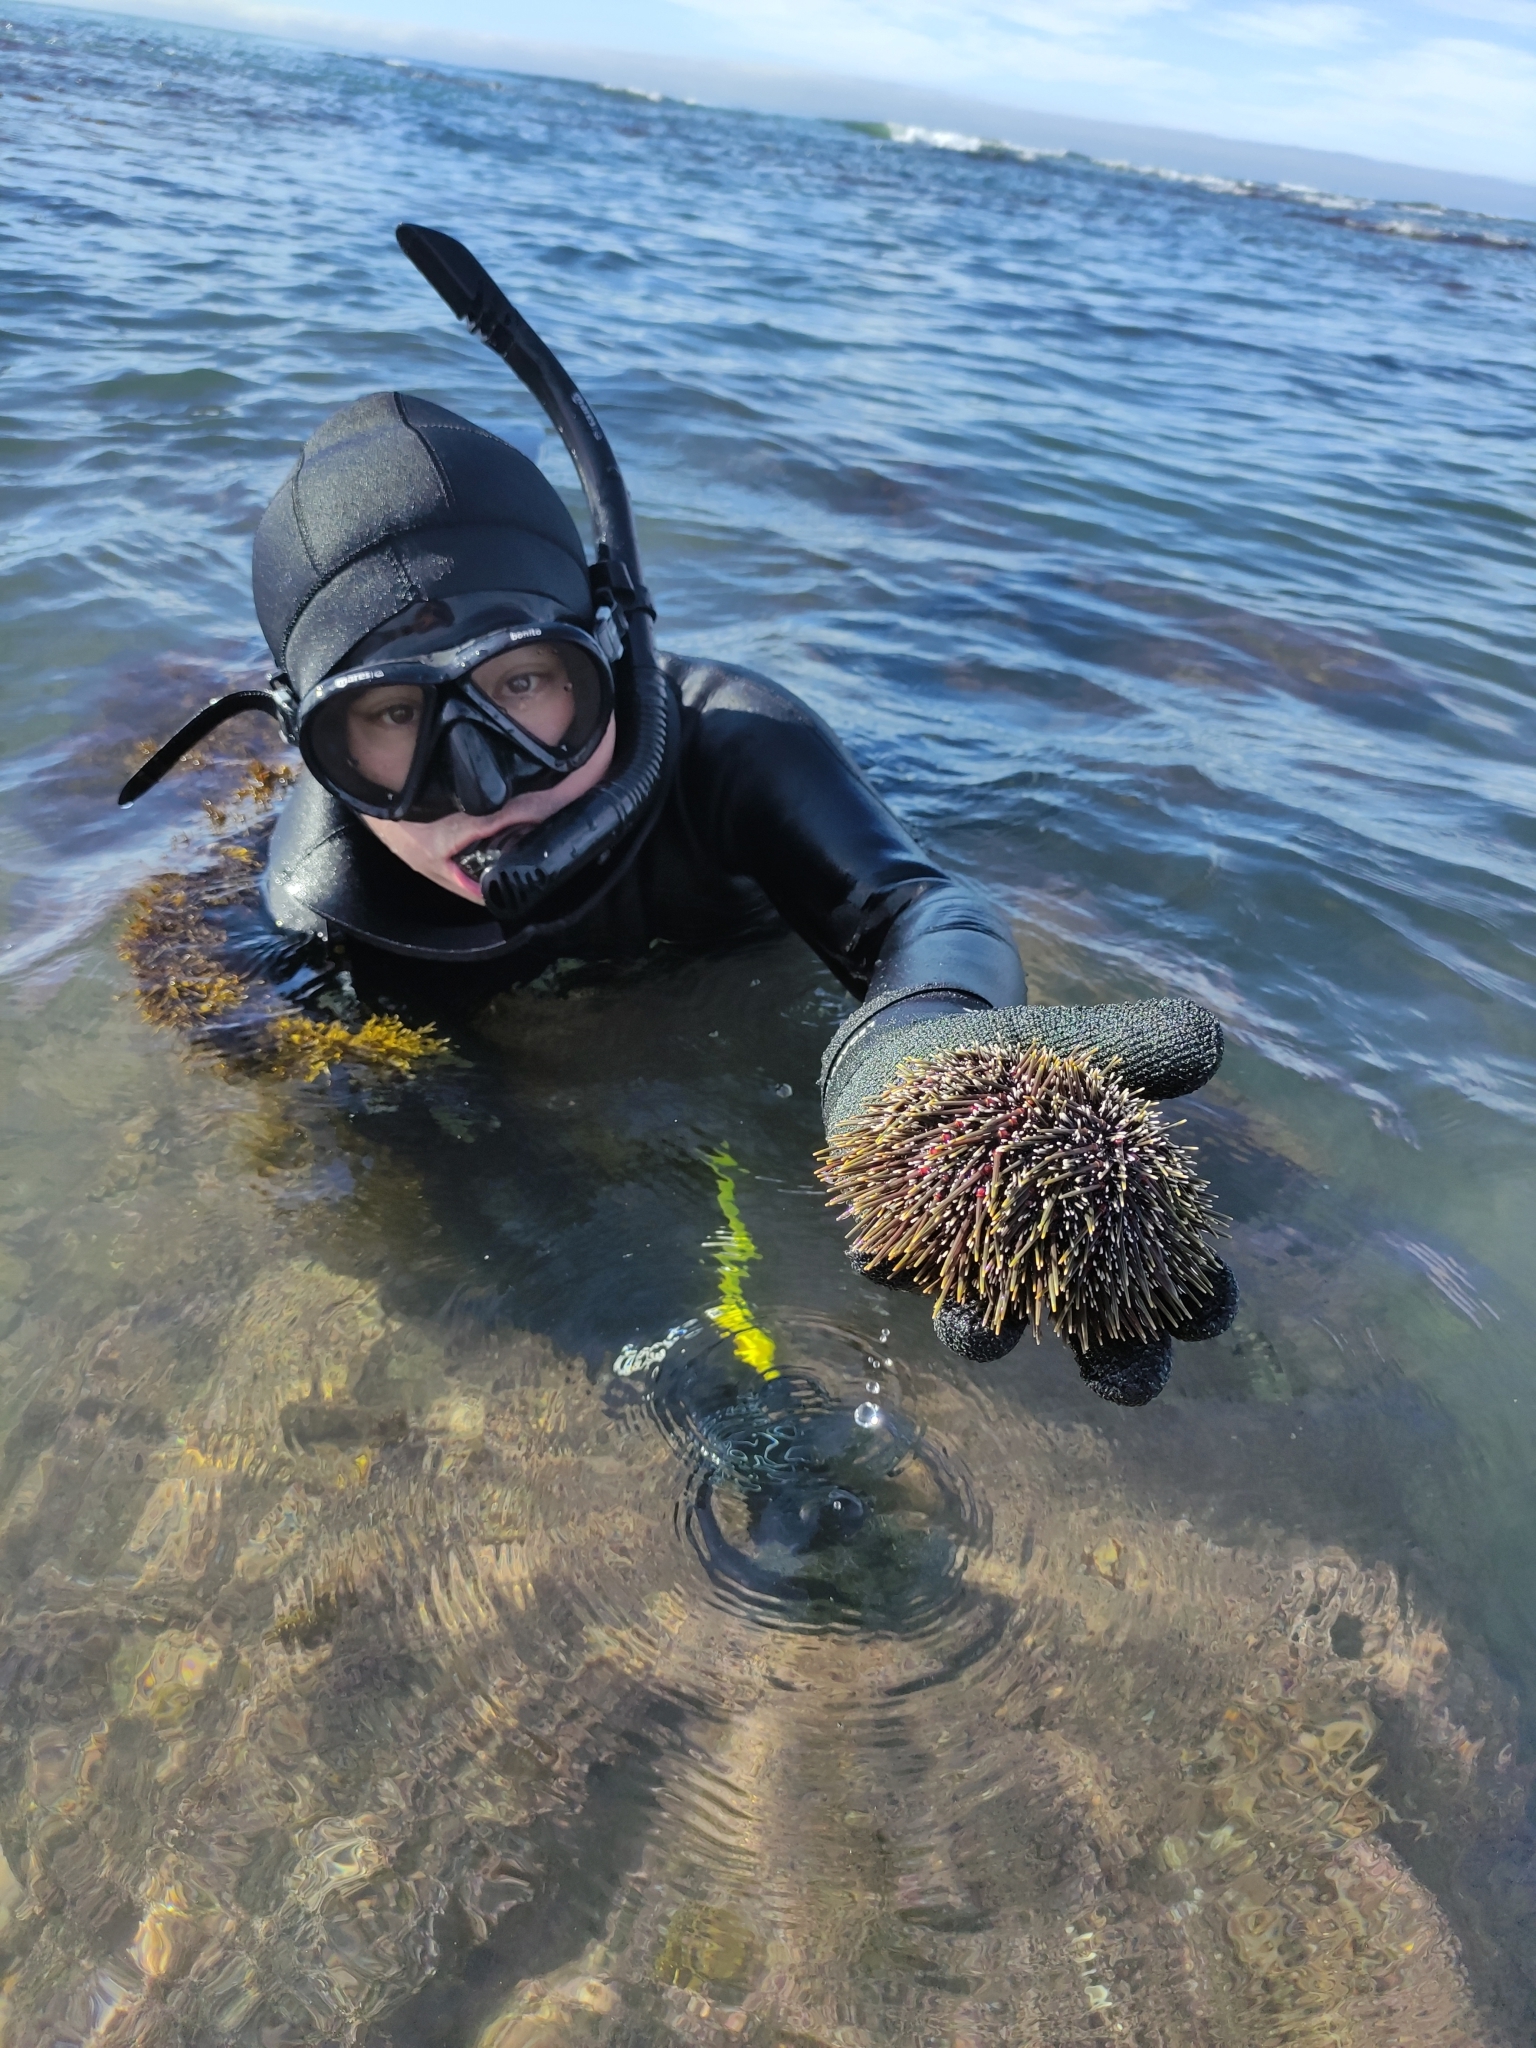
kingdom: Animalia
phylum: Mollusca
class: Polyplacophora
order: Chitonida
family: Ischnochitonidae
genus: Ischnochiton
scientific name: Ischnochiton maorianus
